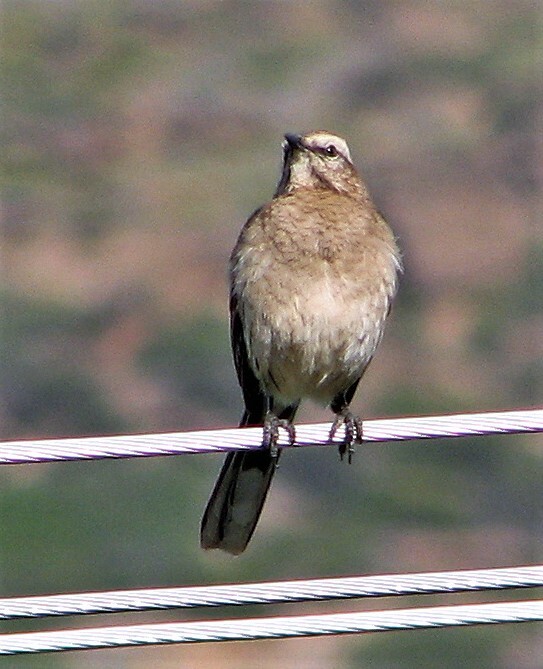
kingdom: Animalia
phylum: Chordata
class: Aves
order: Passeriformes
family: Mimidae
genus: Mimus
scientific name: Mimus patagonicus
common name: Patagonian mockingbird
